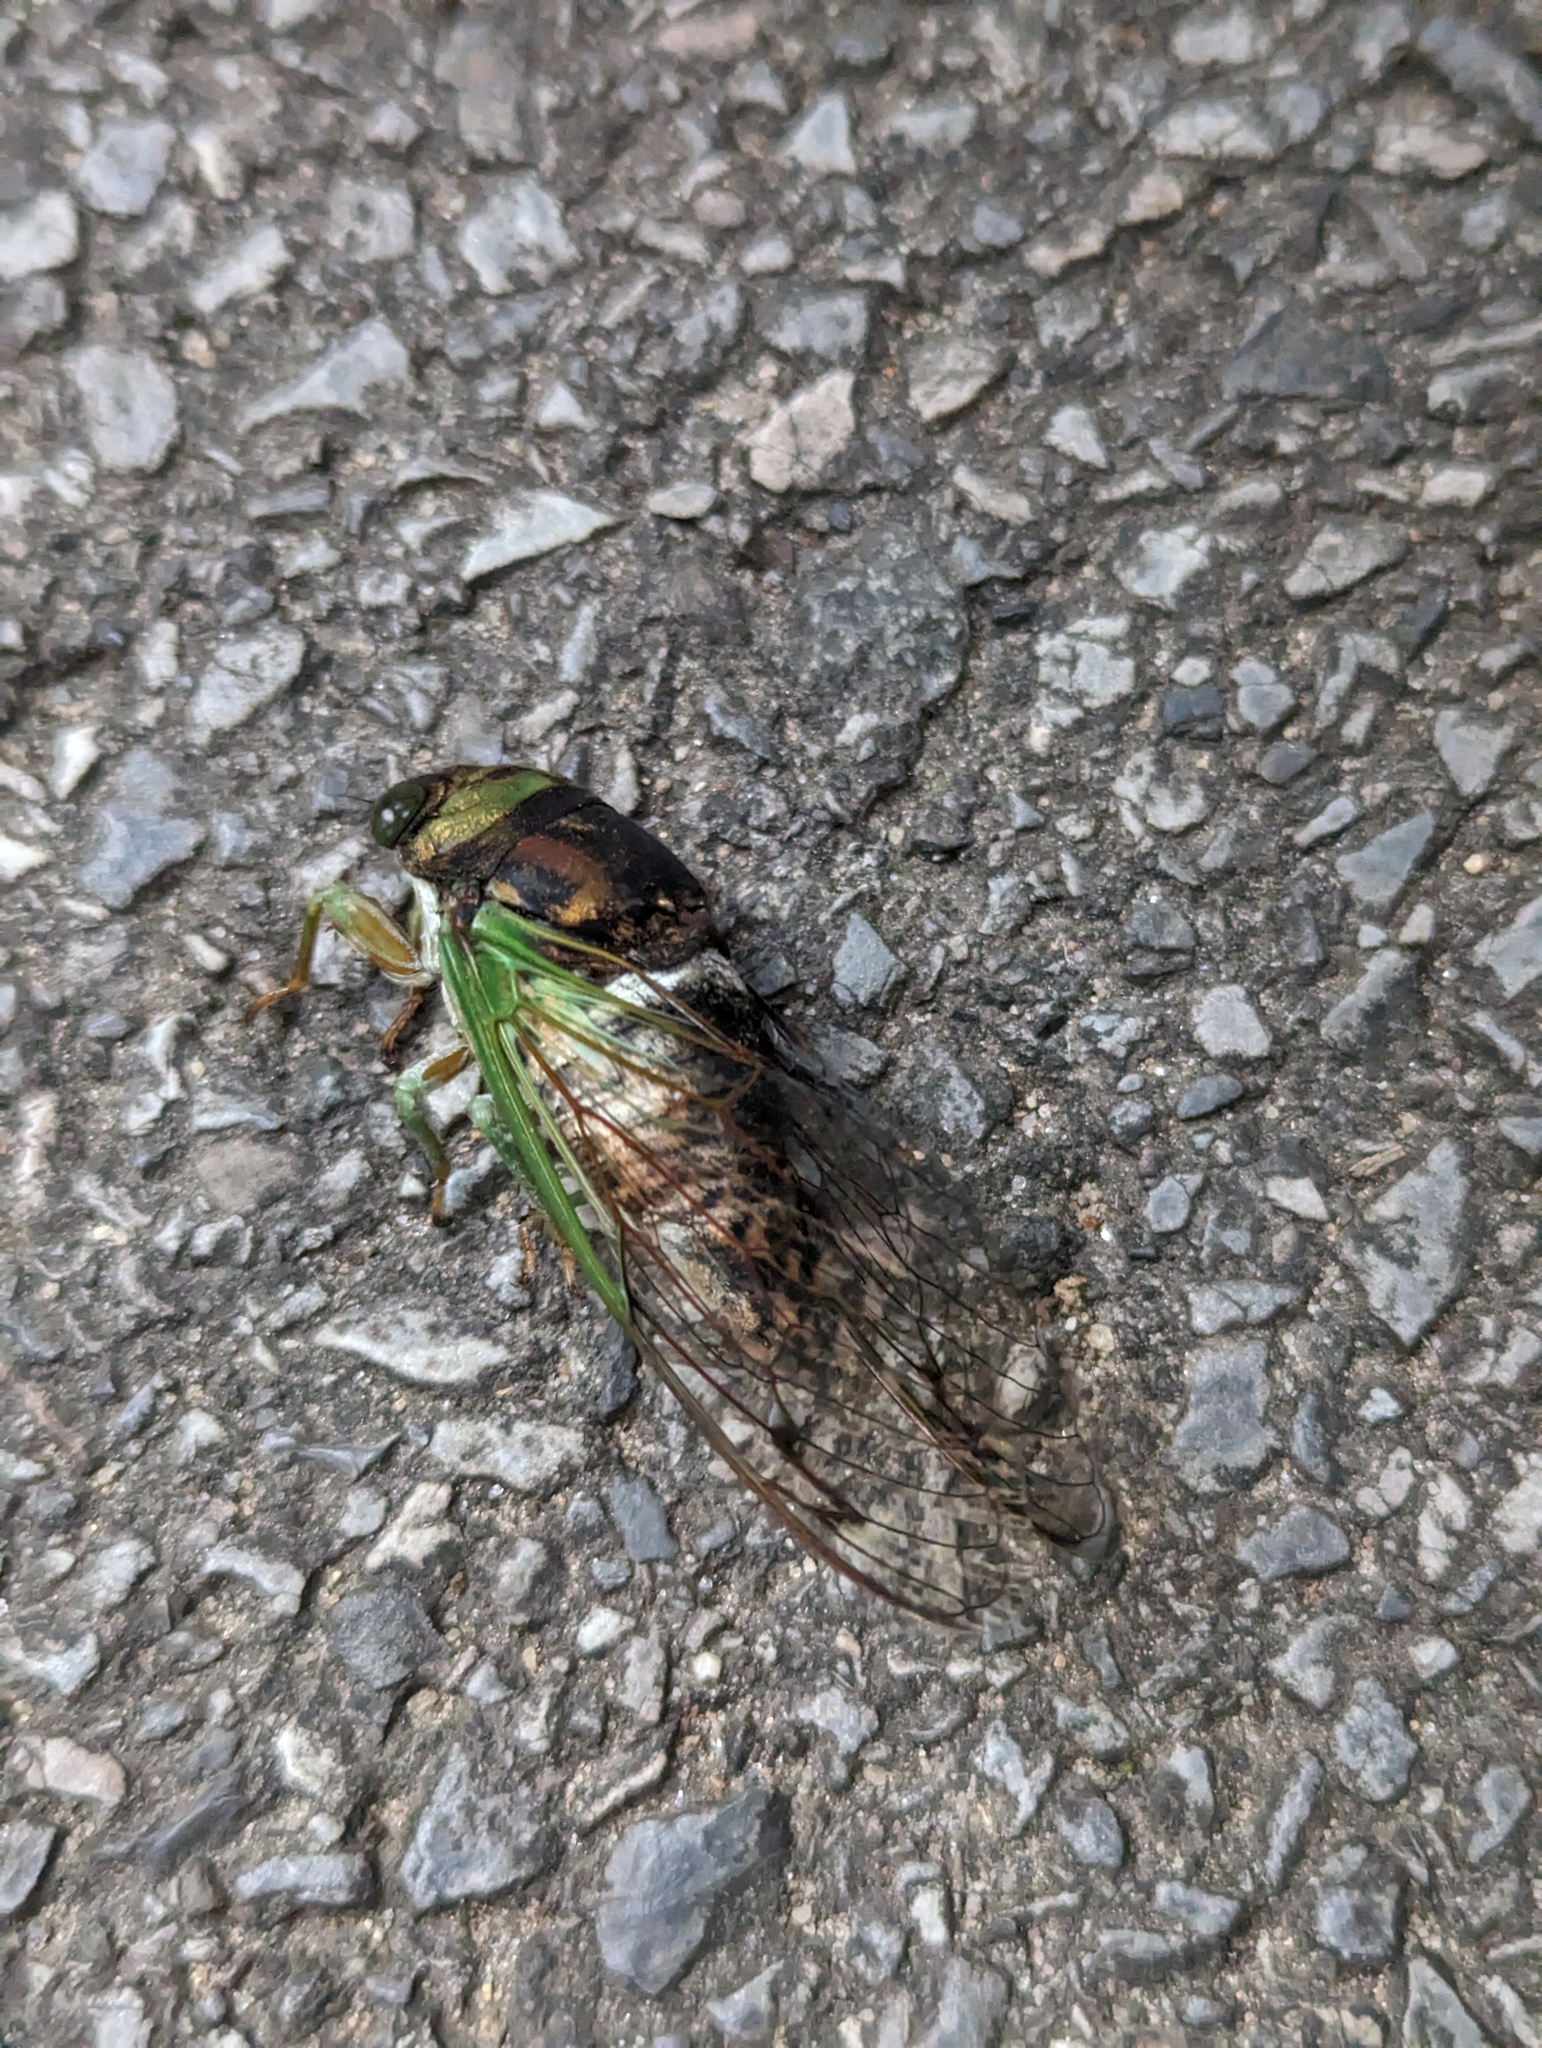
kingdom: Animalia
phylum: Arthropoda
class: Insecta
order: Hemiptera
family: Cicadidae
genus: Neotibicen
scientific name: Neotibicen tibicen
